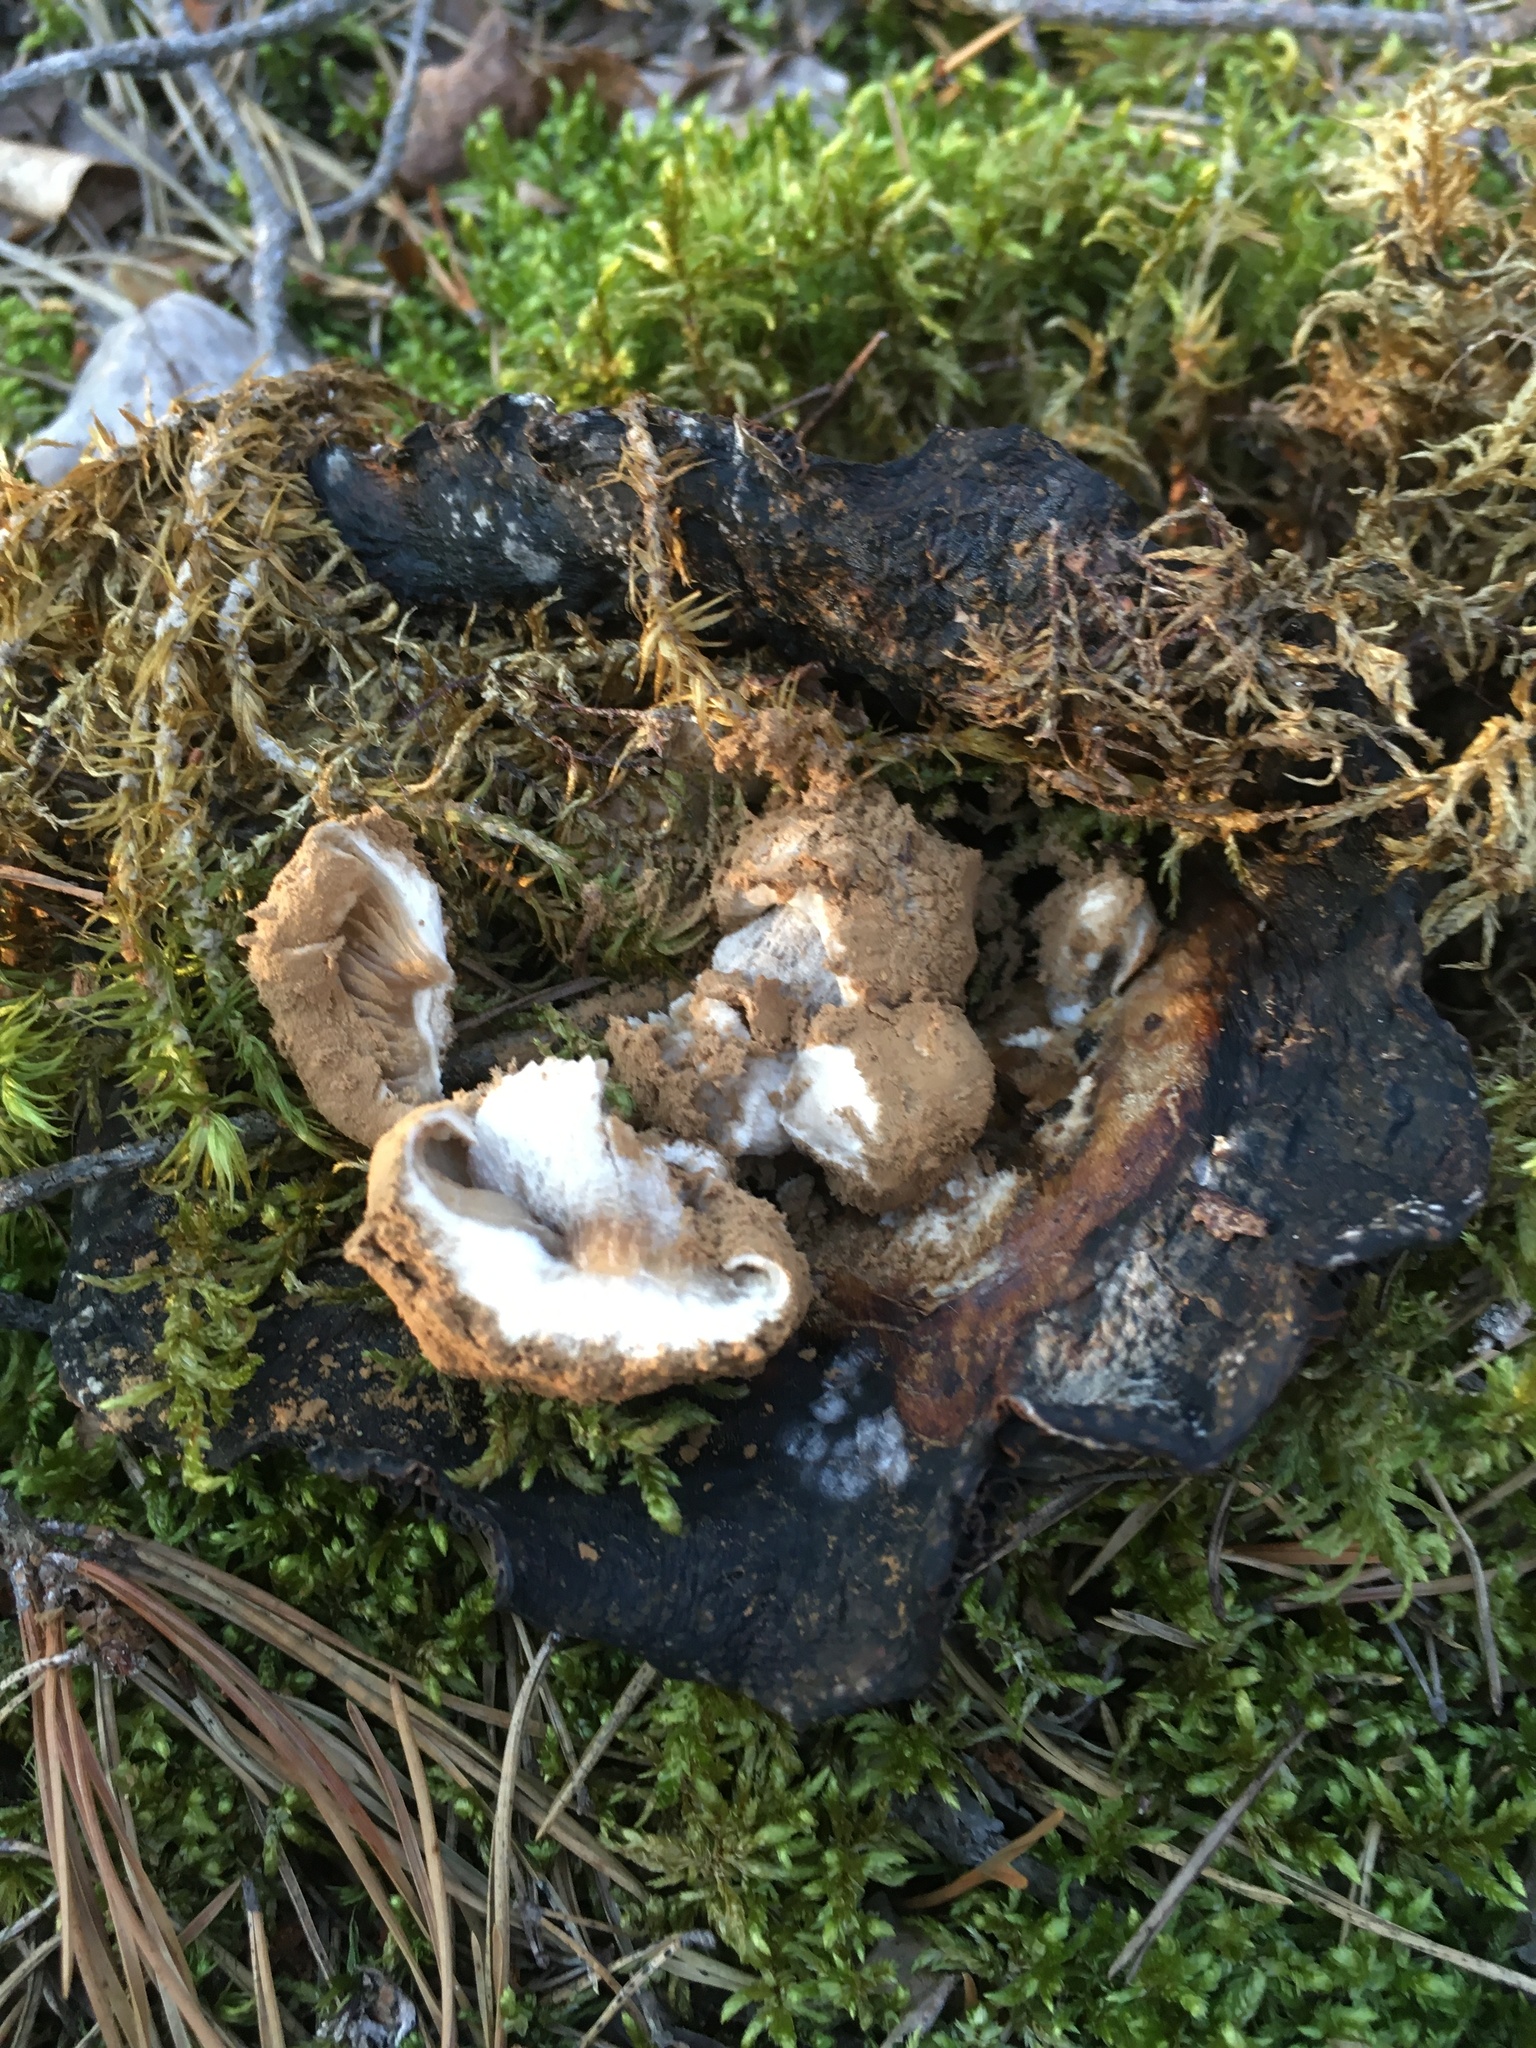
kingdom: Fungi
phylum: Basidiomycota
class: Agaricomycetes
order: Agaricales
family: Lyophyllaceae
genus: Asterophora
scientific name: Asterophora lycoperdoides
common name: Pick-a-back toadstool
